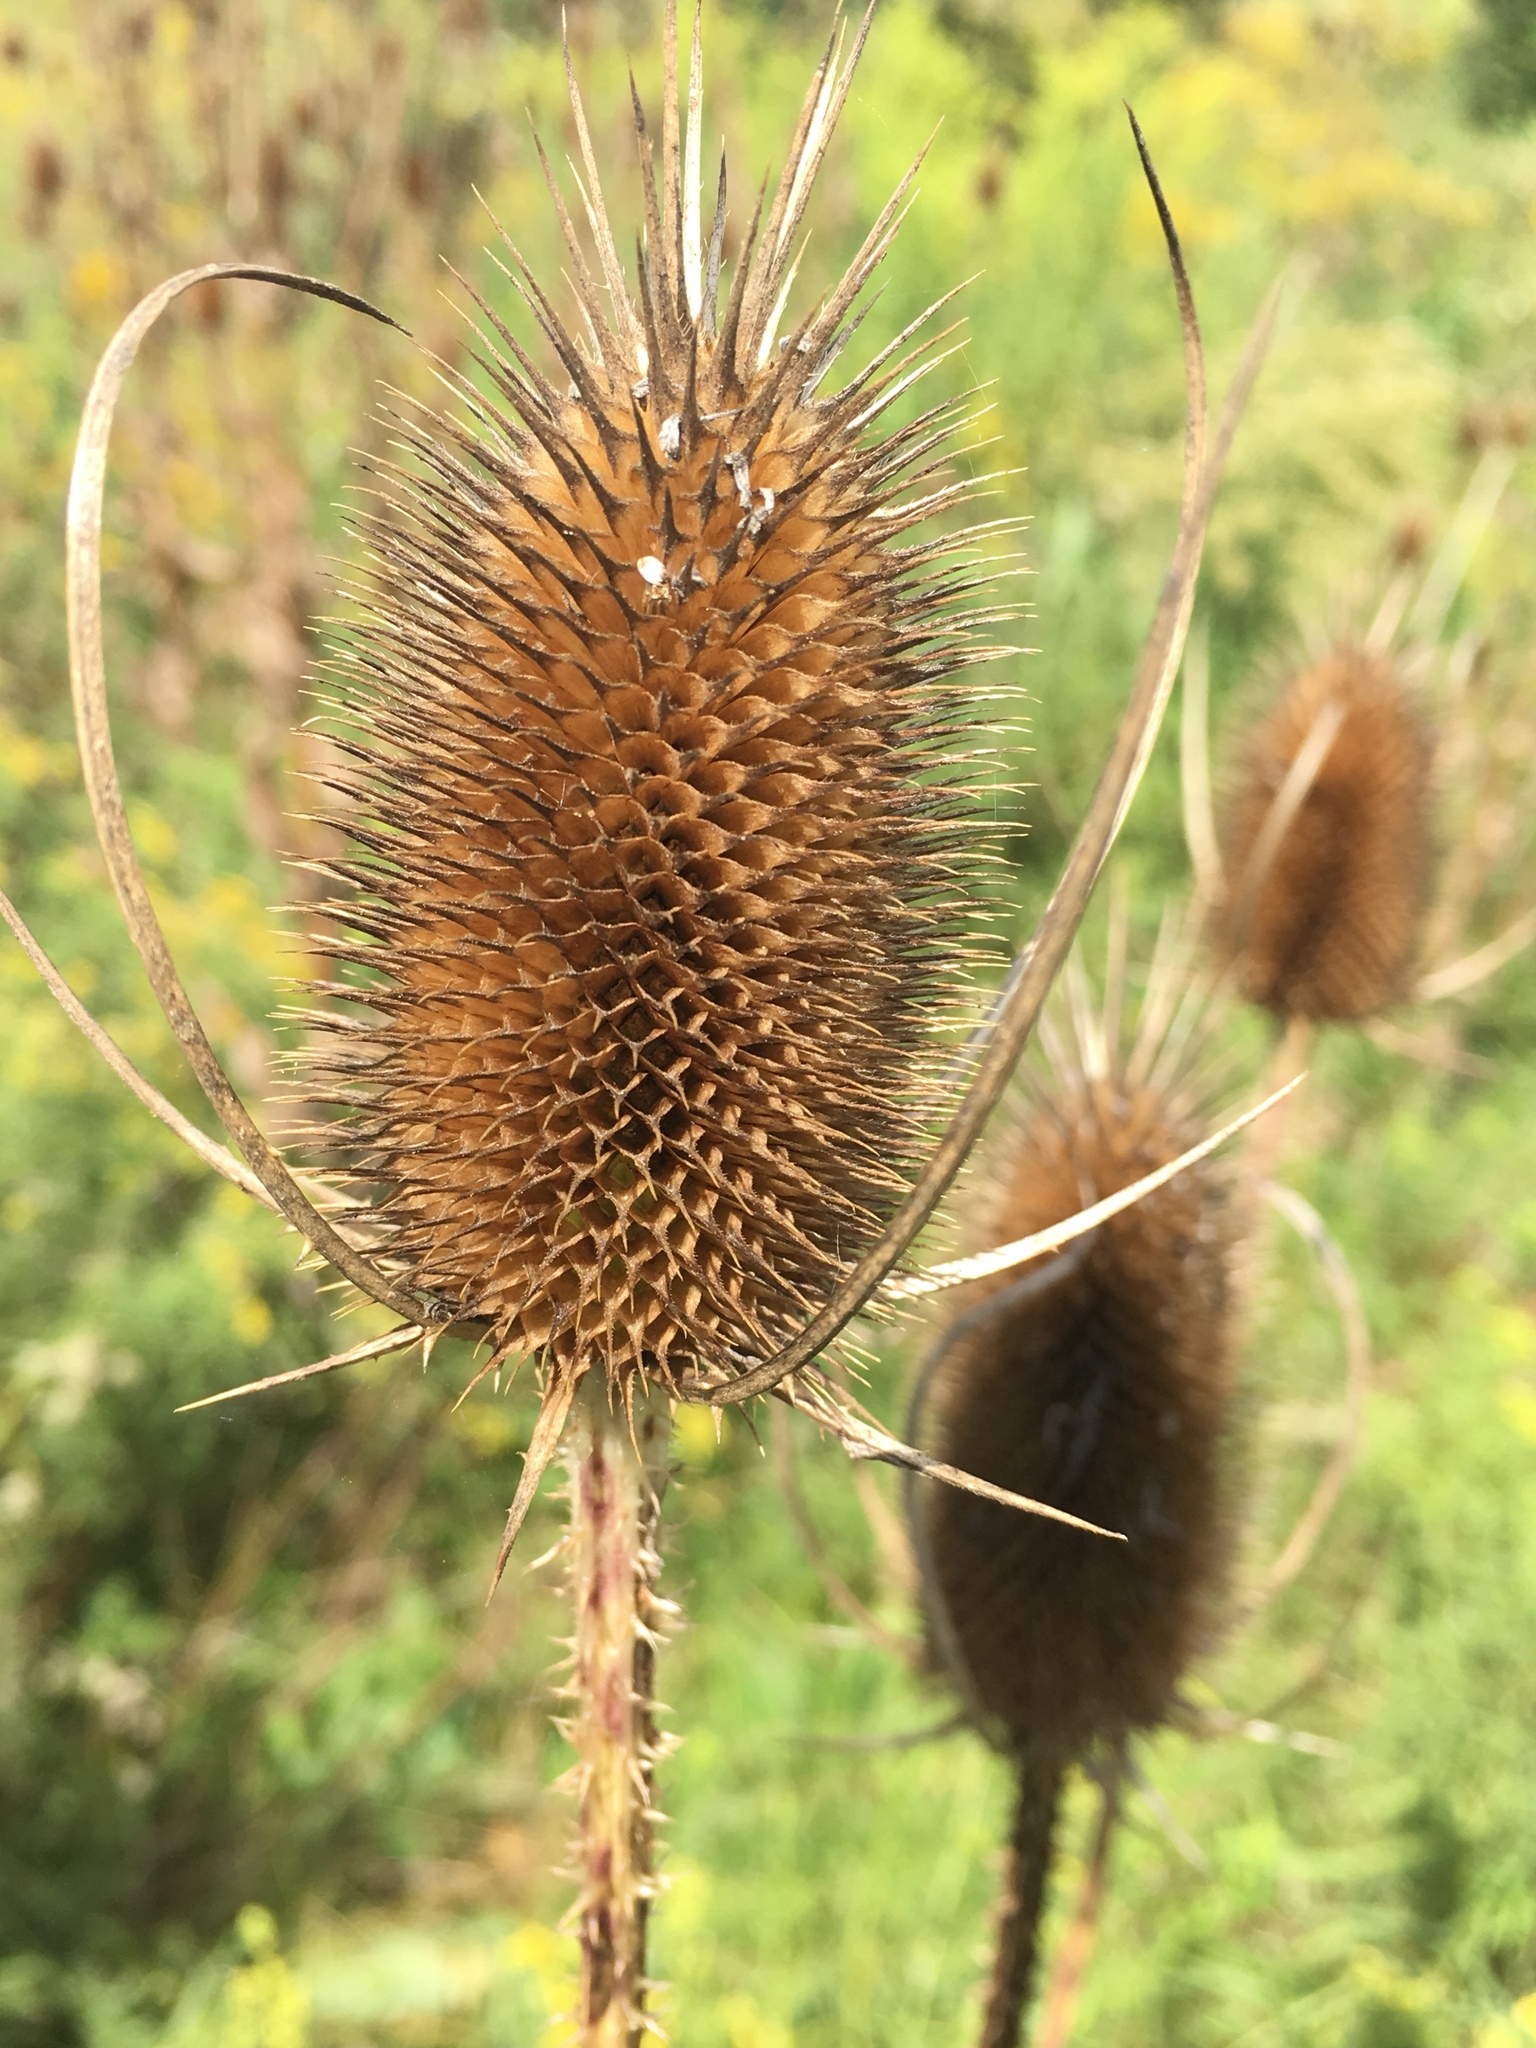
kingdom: Plantae
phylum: Tracheophyta
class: Magnoliopsida
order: Dipsacales
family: Caprifoliaceae
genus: Dipsacus
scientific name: Dipsacus fullonum
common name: Teasel
